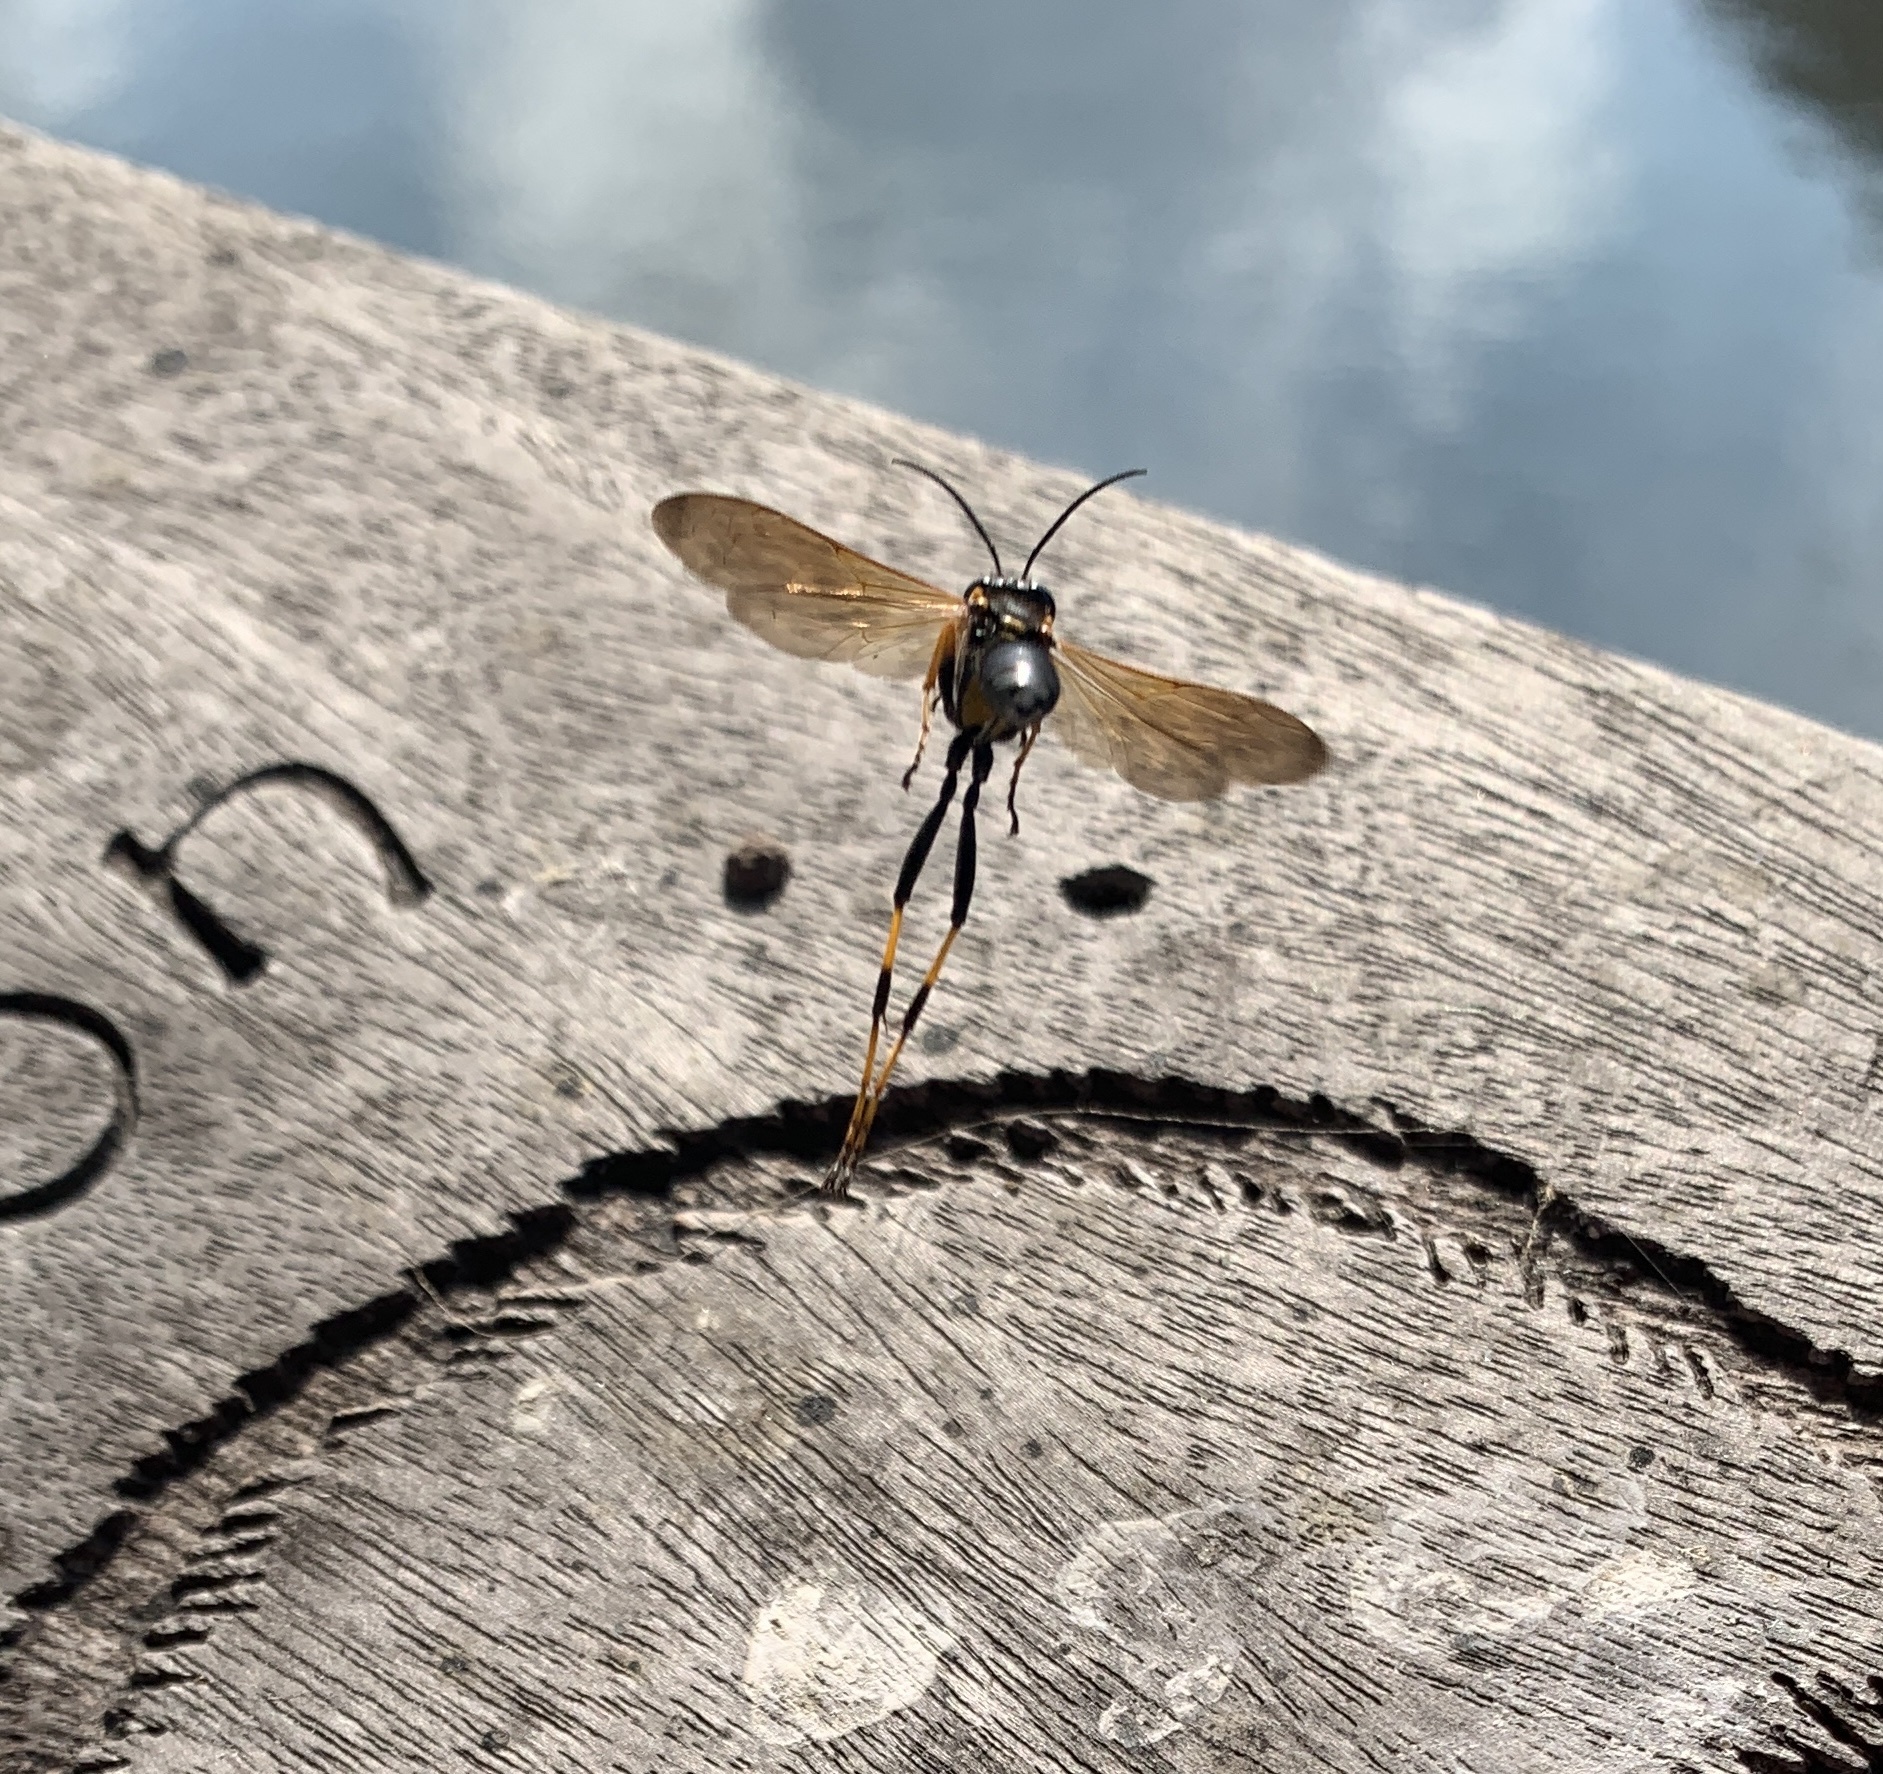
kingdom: Animalia
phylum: Arthropoda
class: Insecta
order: Hymenoptera
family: Sphecidae
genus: Sceliphron
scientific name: Sceliphron caementarium
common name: Mud dauber
